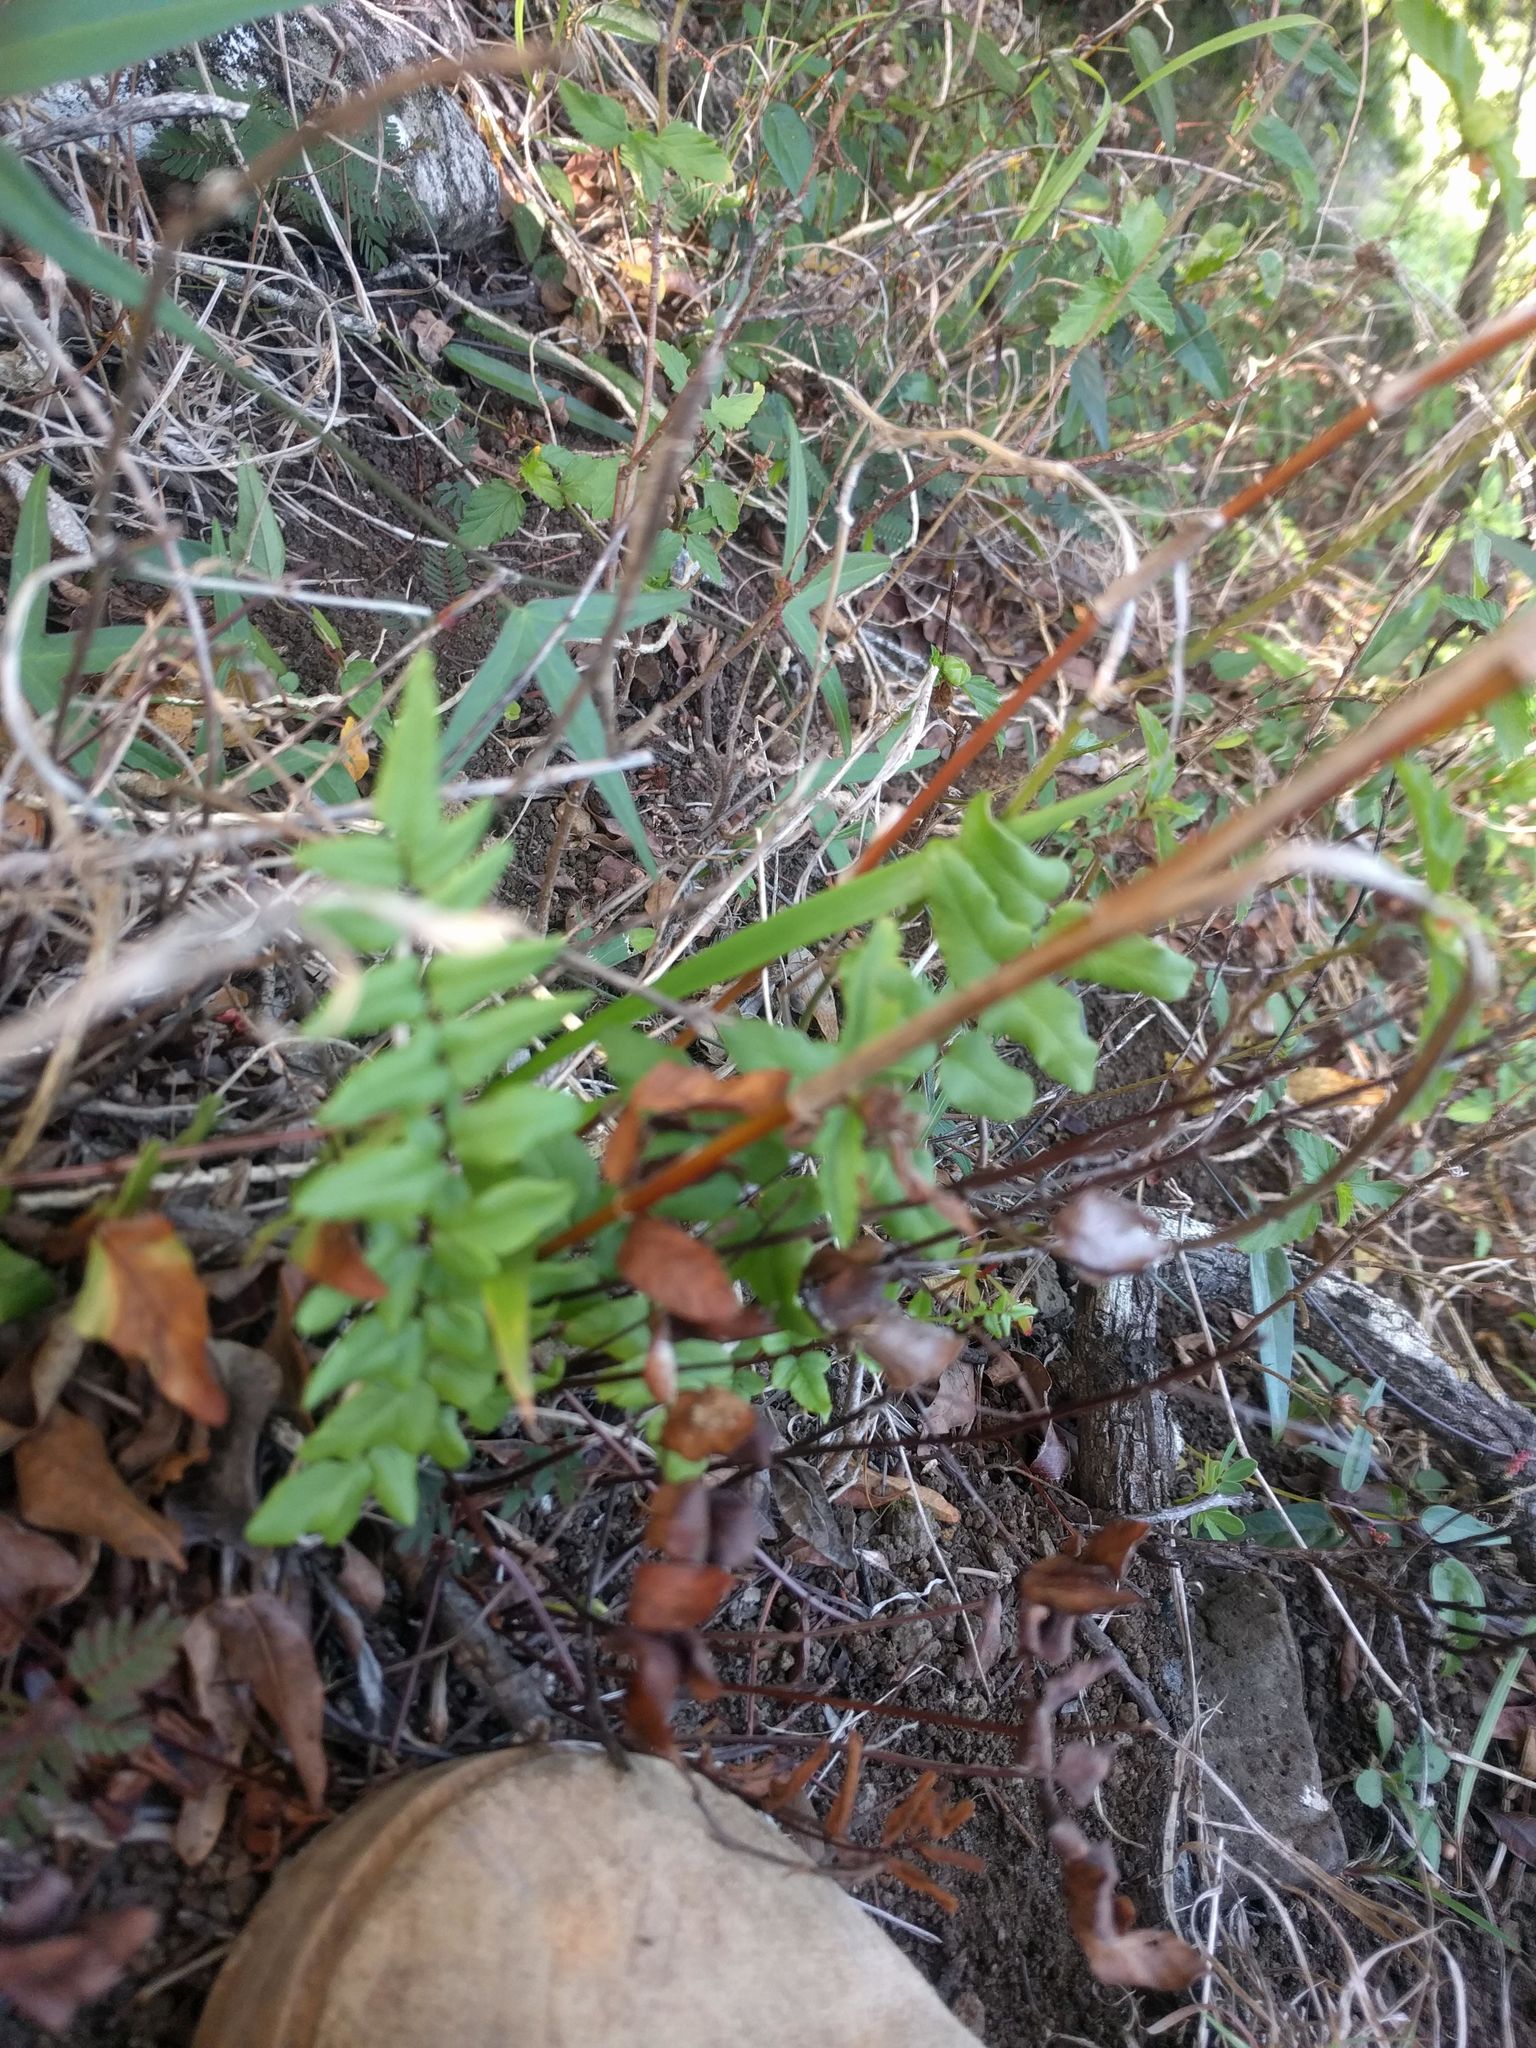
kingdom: Plantae
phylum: Tracheophyta
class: Polypodiopsida
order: Polypodiales
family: Pteridaceae
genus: Cheilanthes
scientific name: Cheilanthes viridis
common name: Green cliffbrake
